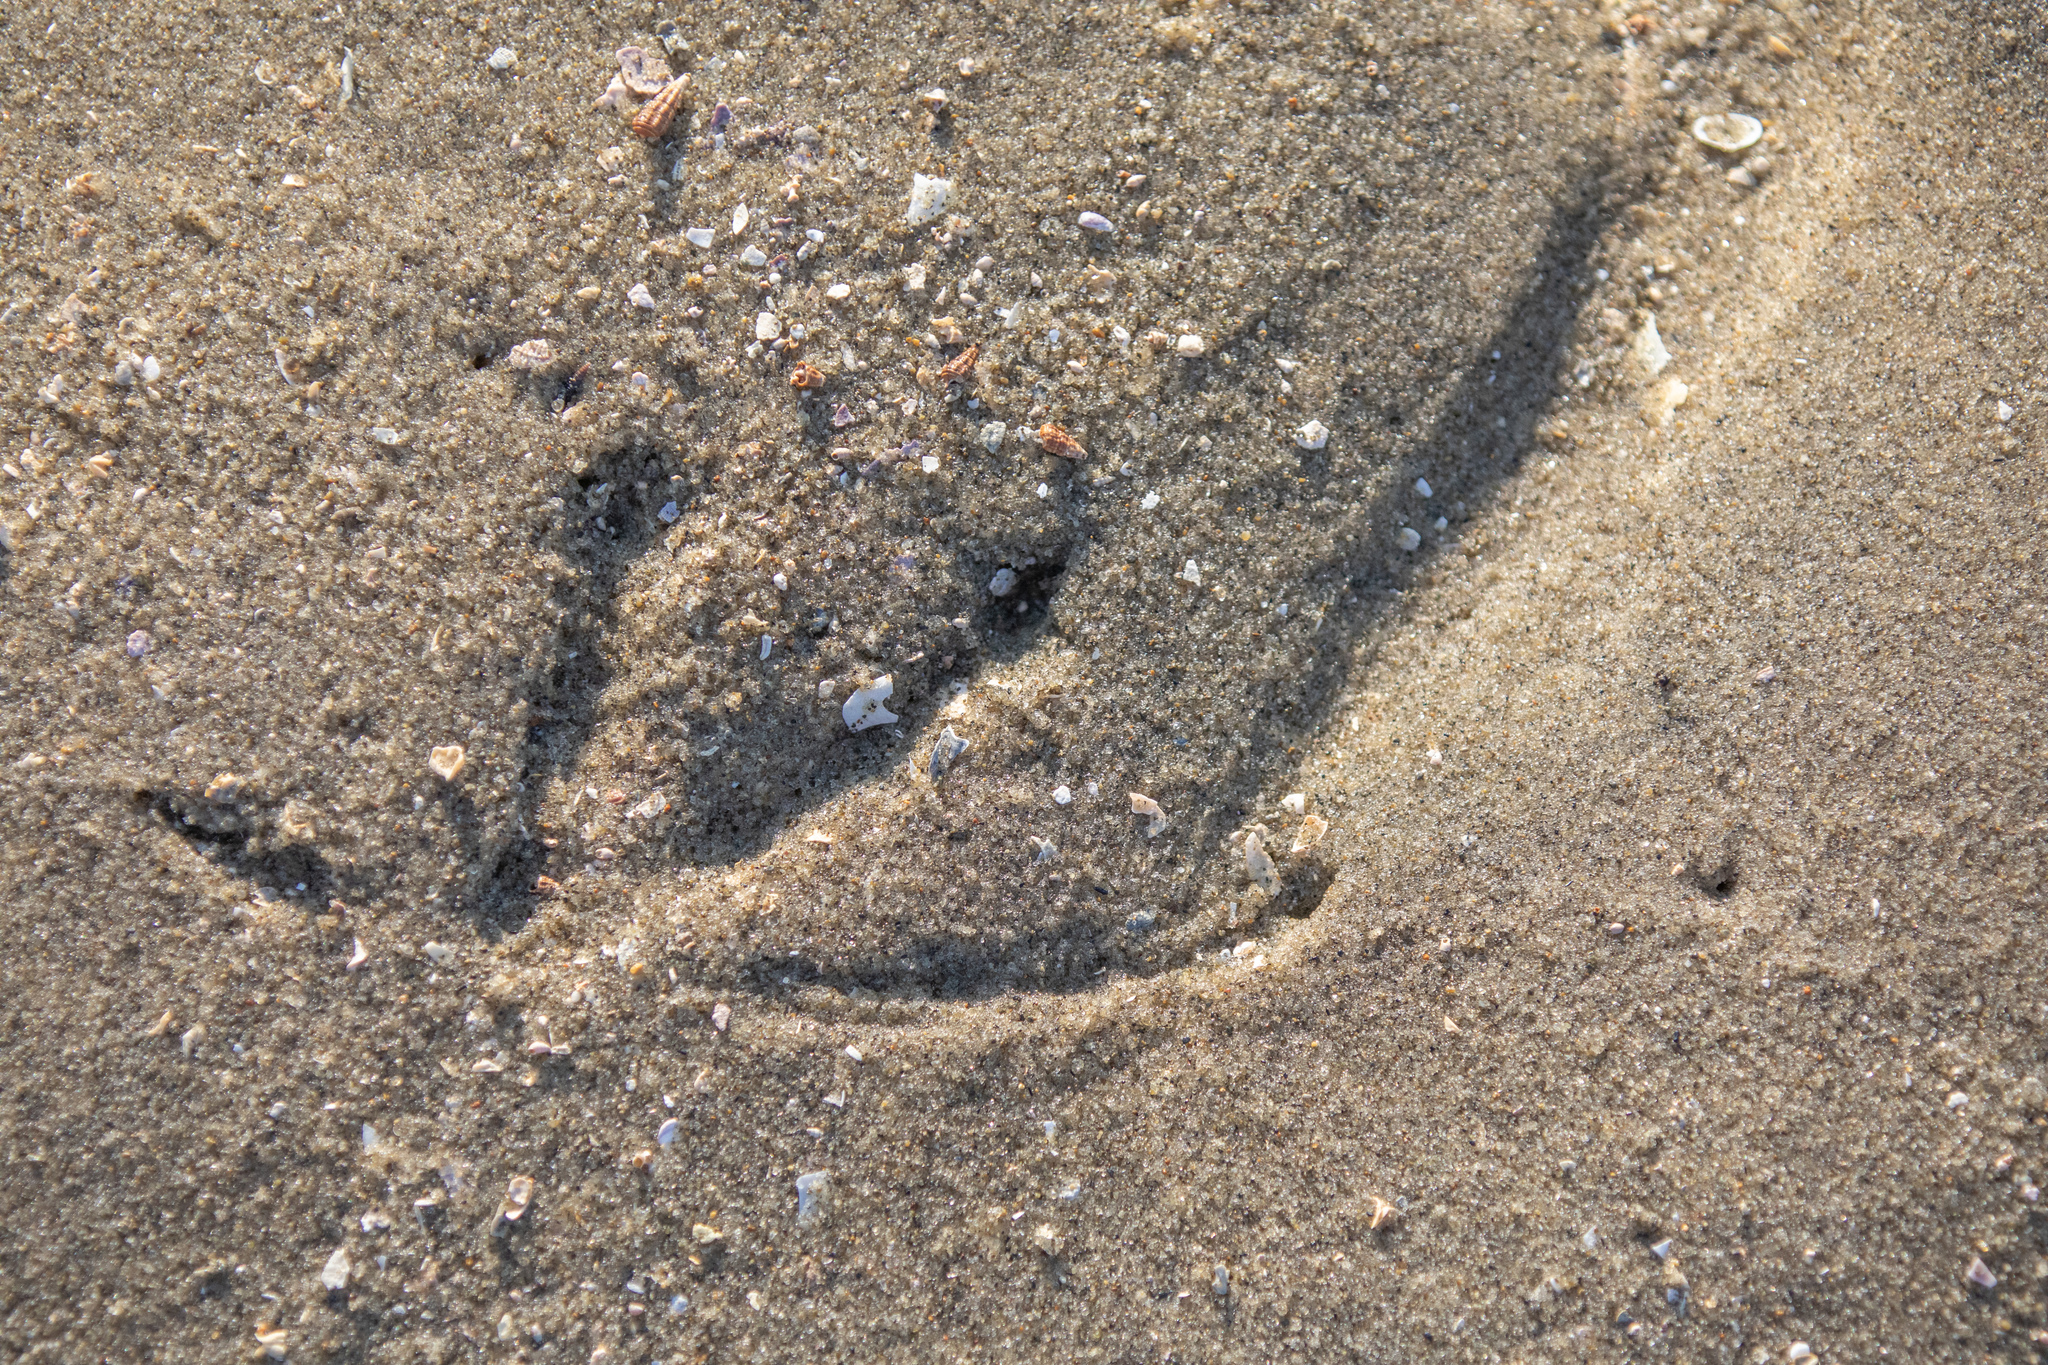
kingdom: Animalia
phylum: Chordata
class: Aves
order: Suliformes
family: Phalacrocoracidae
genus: Microcarbo
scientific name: Microcarbo melanoleucos
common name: Little pied cormorant
